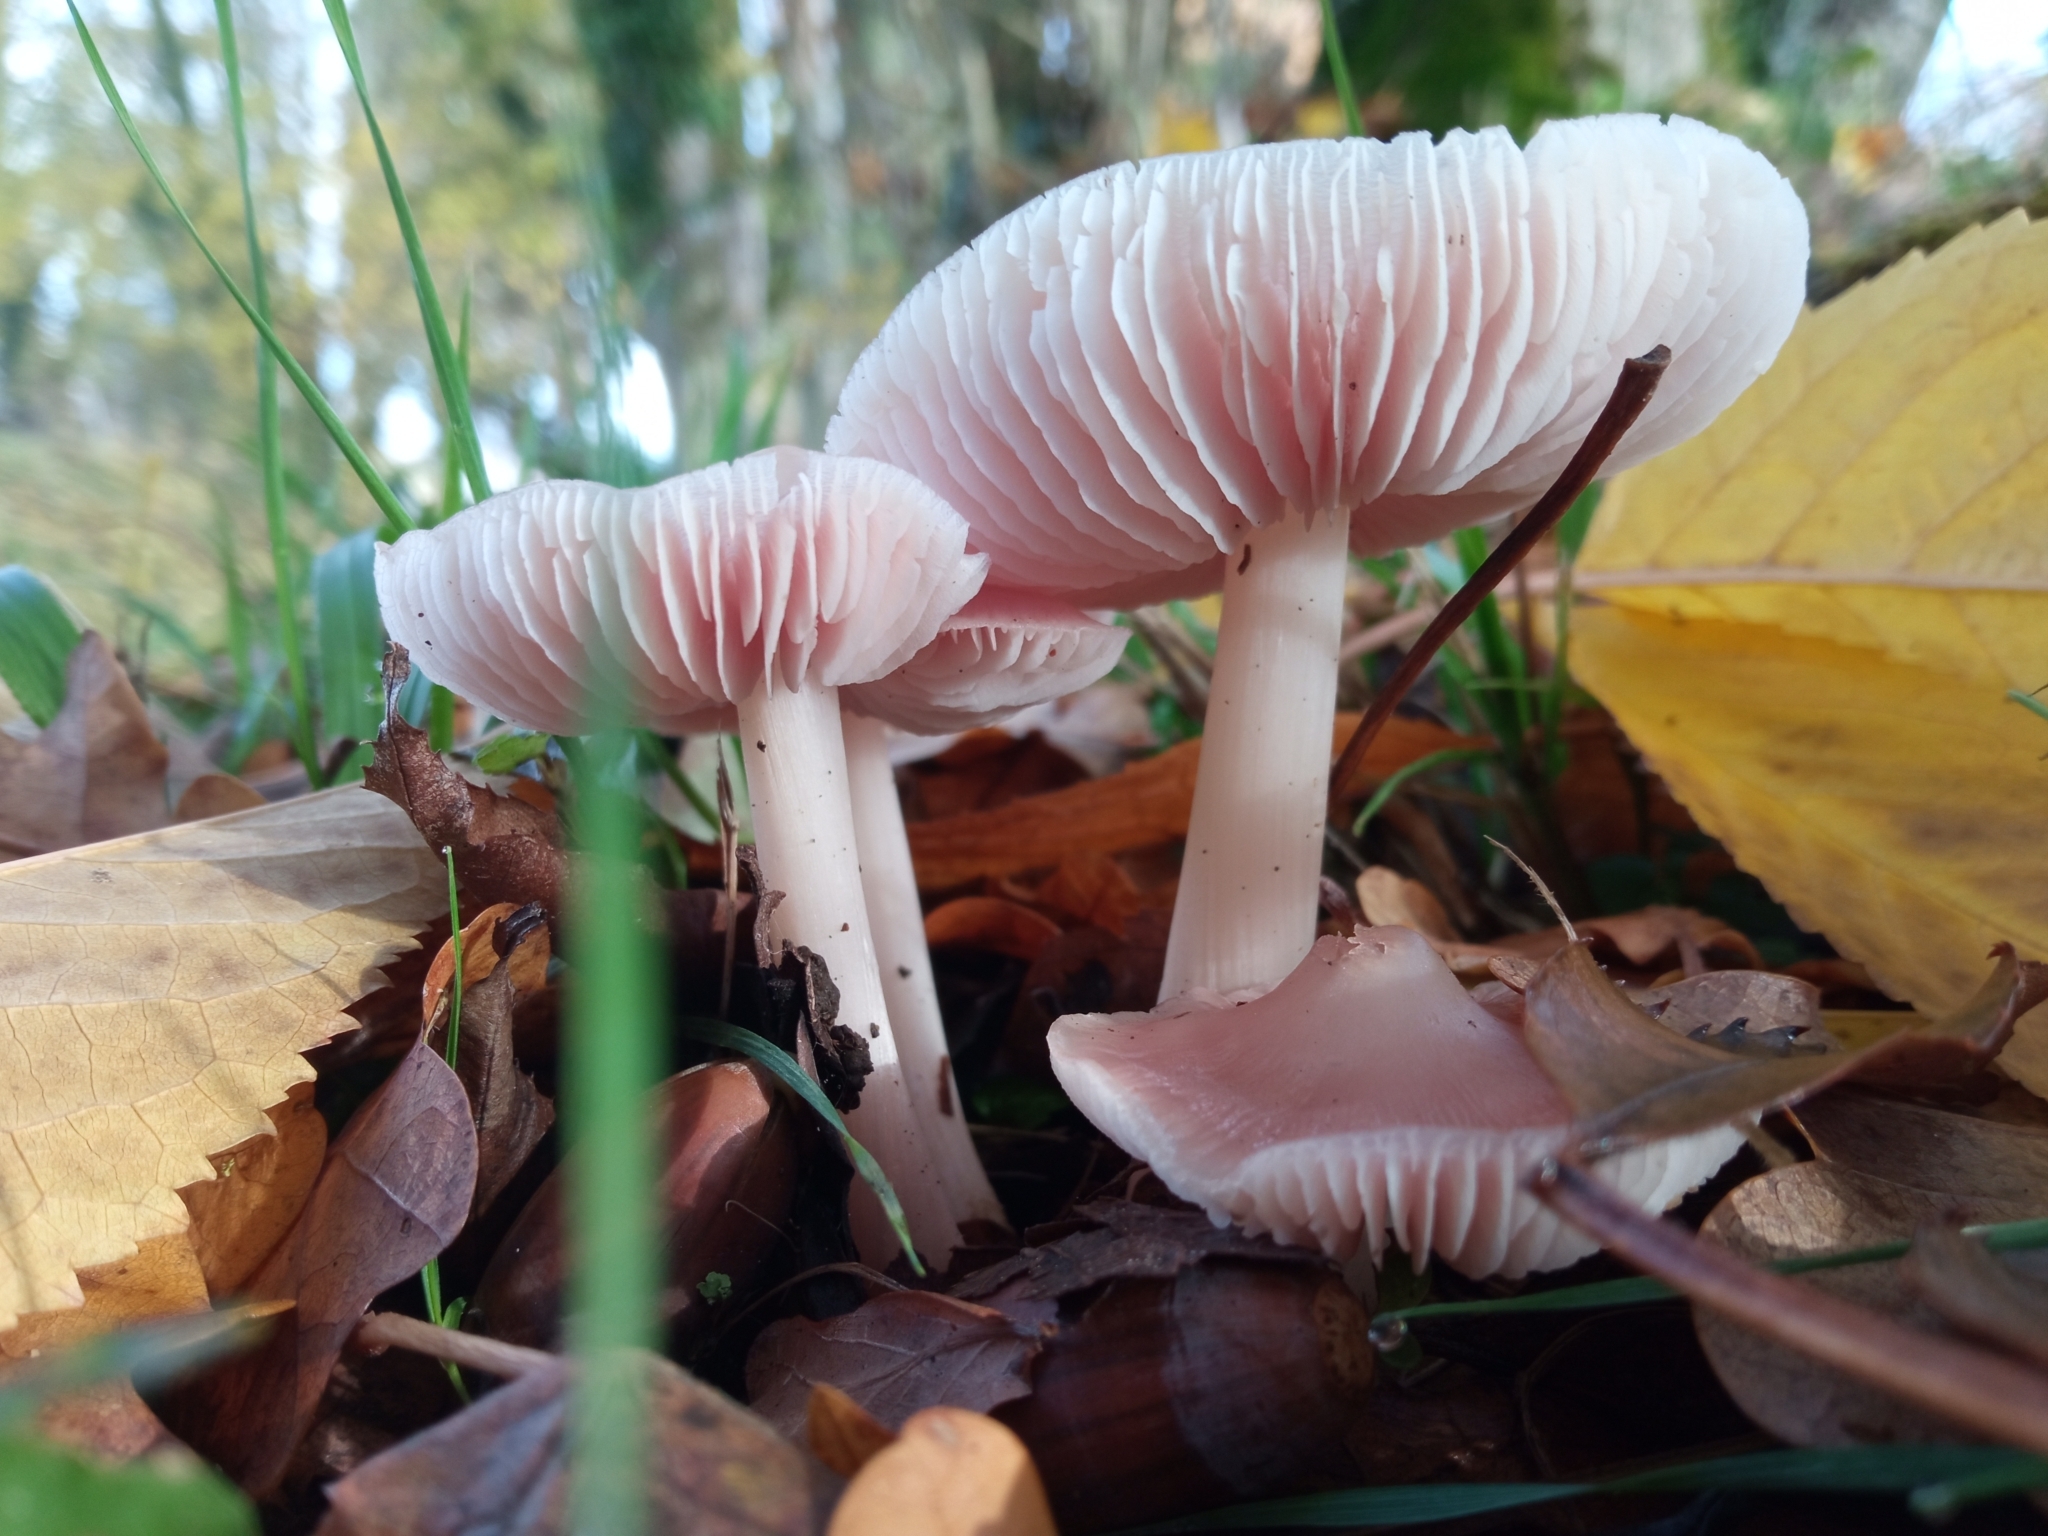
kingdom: Fungi
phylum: Basidiomycota
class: Agaricomycetes
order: Agaricales
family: Mycenaceae
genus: Mycena
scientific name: Mycena rosea
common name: Rosy bonnet
